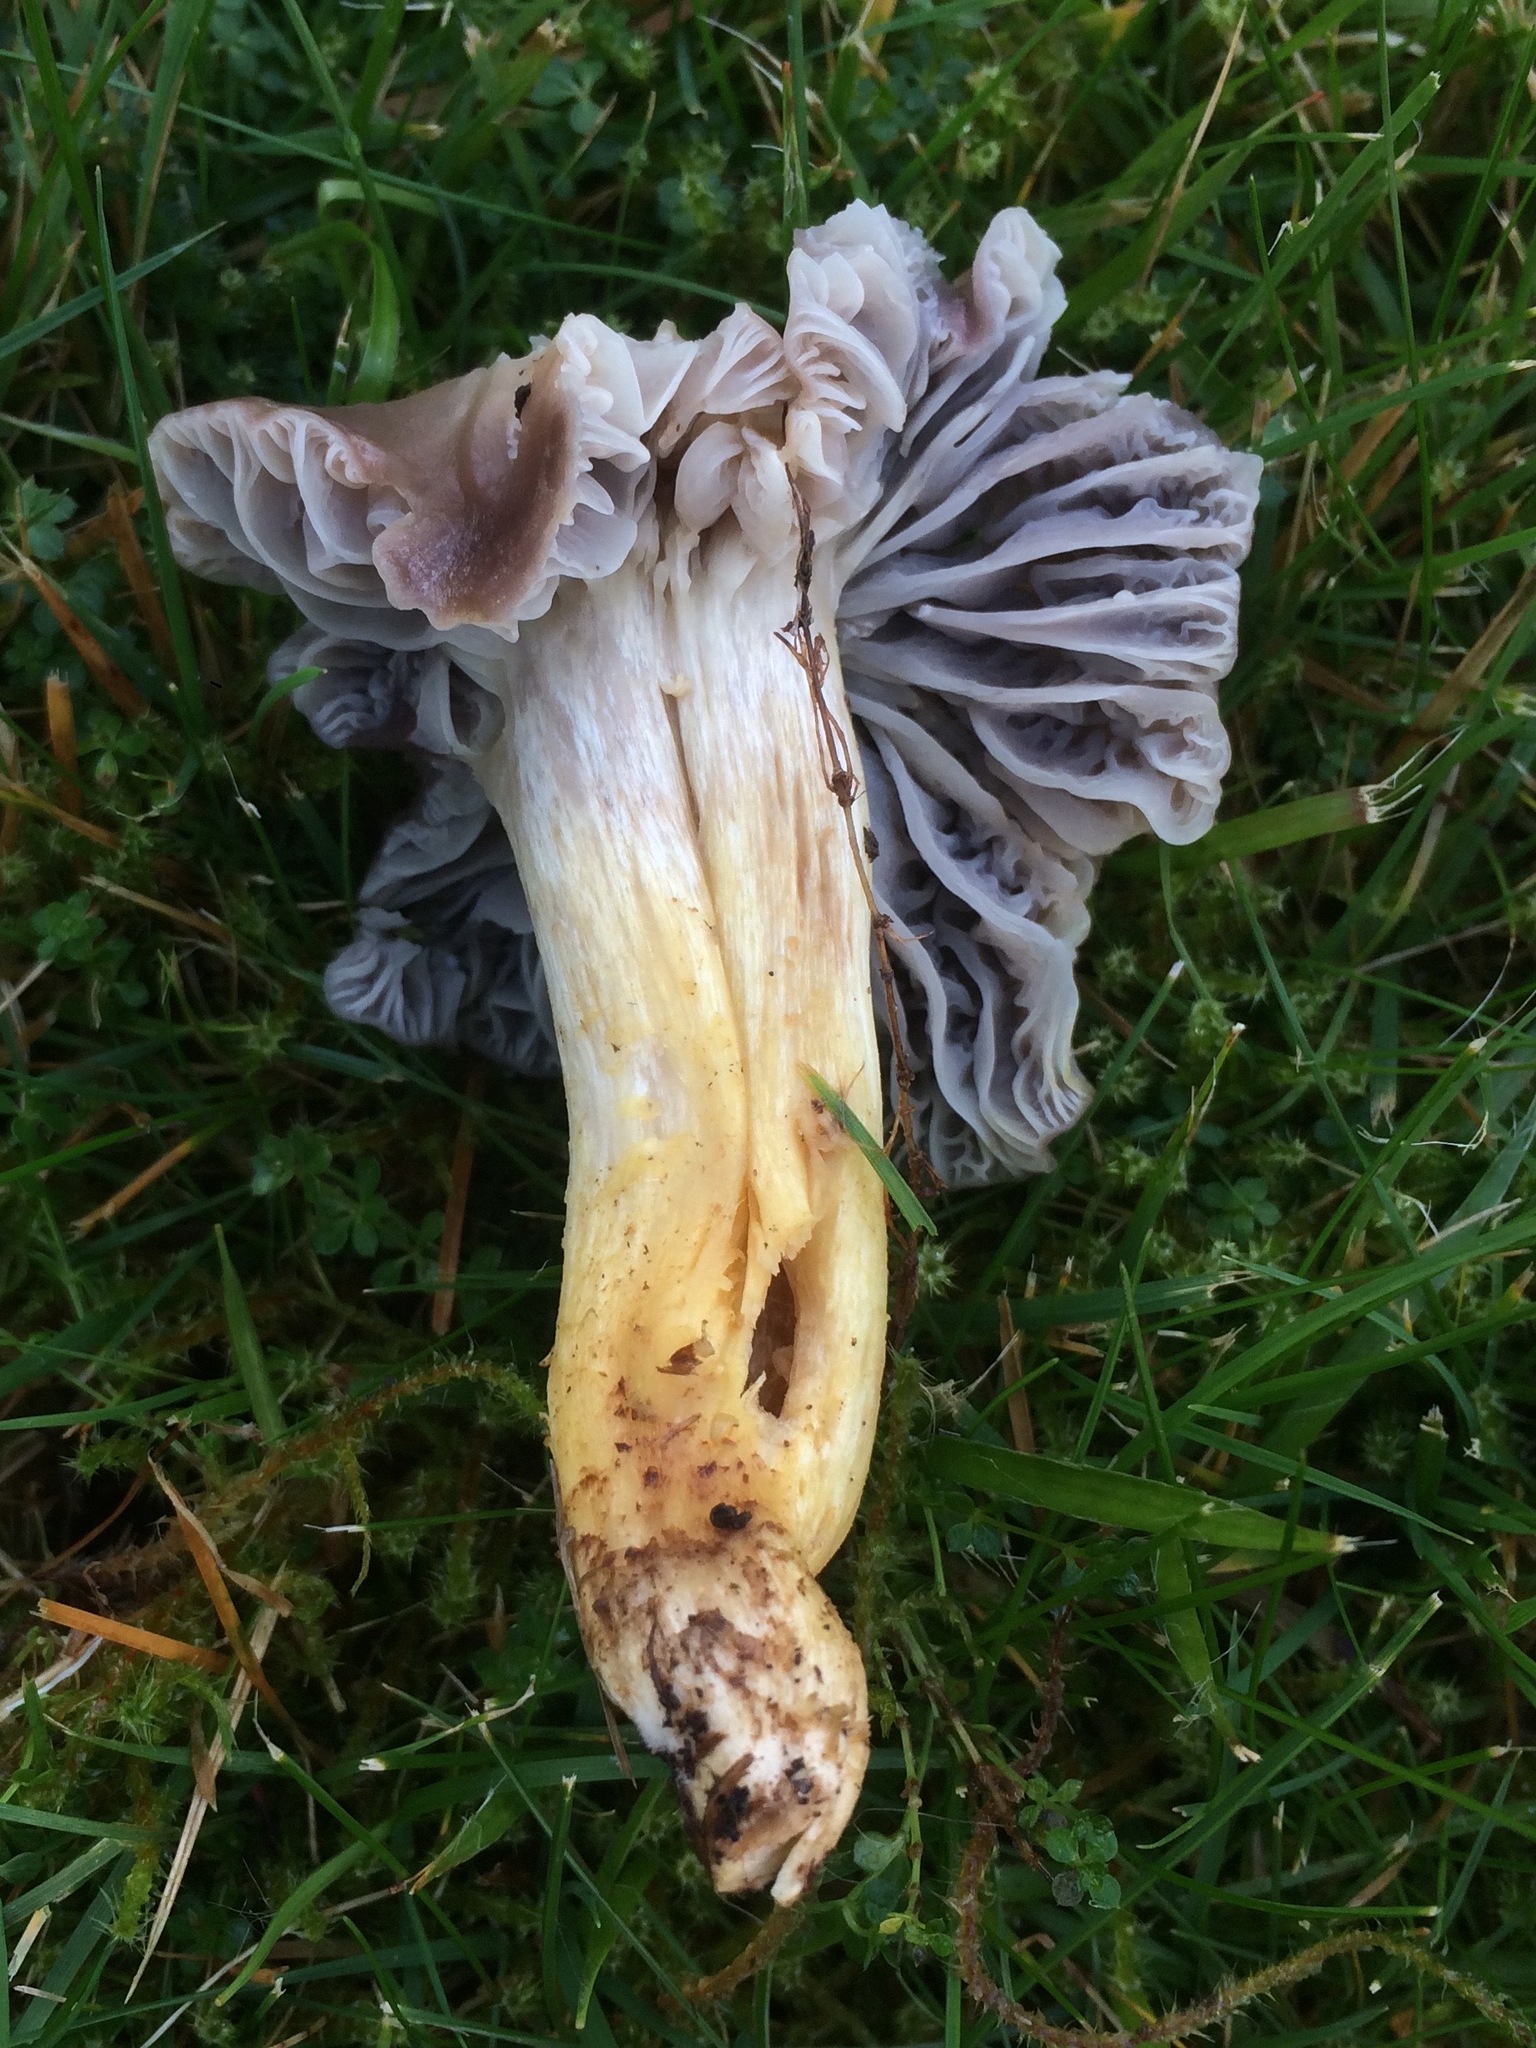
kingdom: Fungi
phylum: Basidiomycota
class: Agaricomycetes
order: Agaricales
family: Hygrophoraceae
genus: Cuphophyllus
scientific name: Cuphophyllus flavipes
